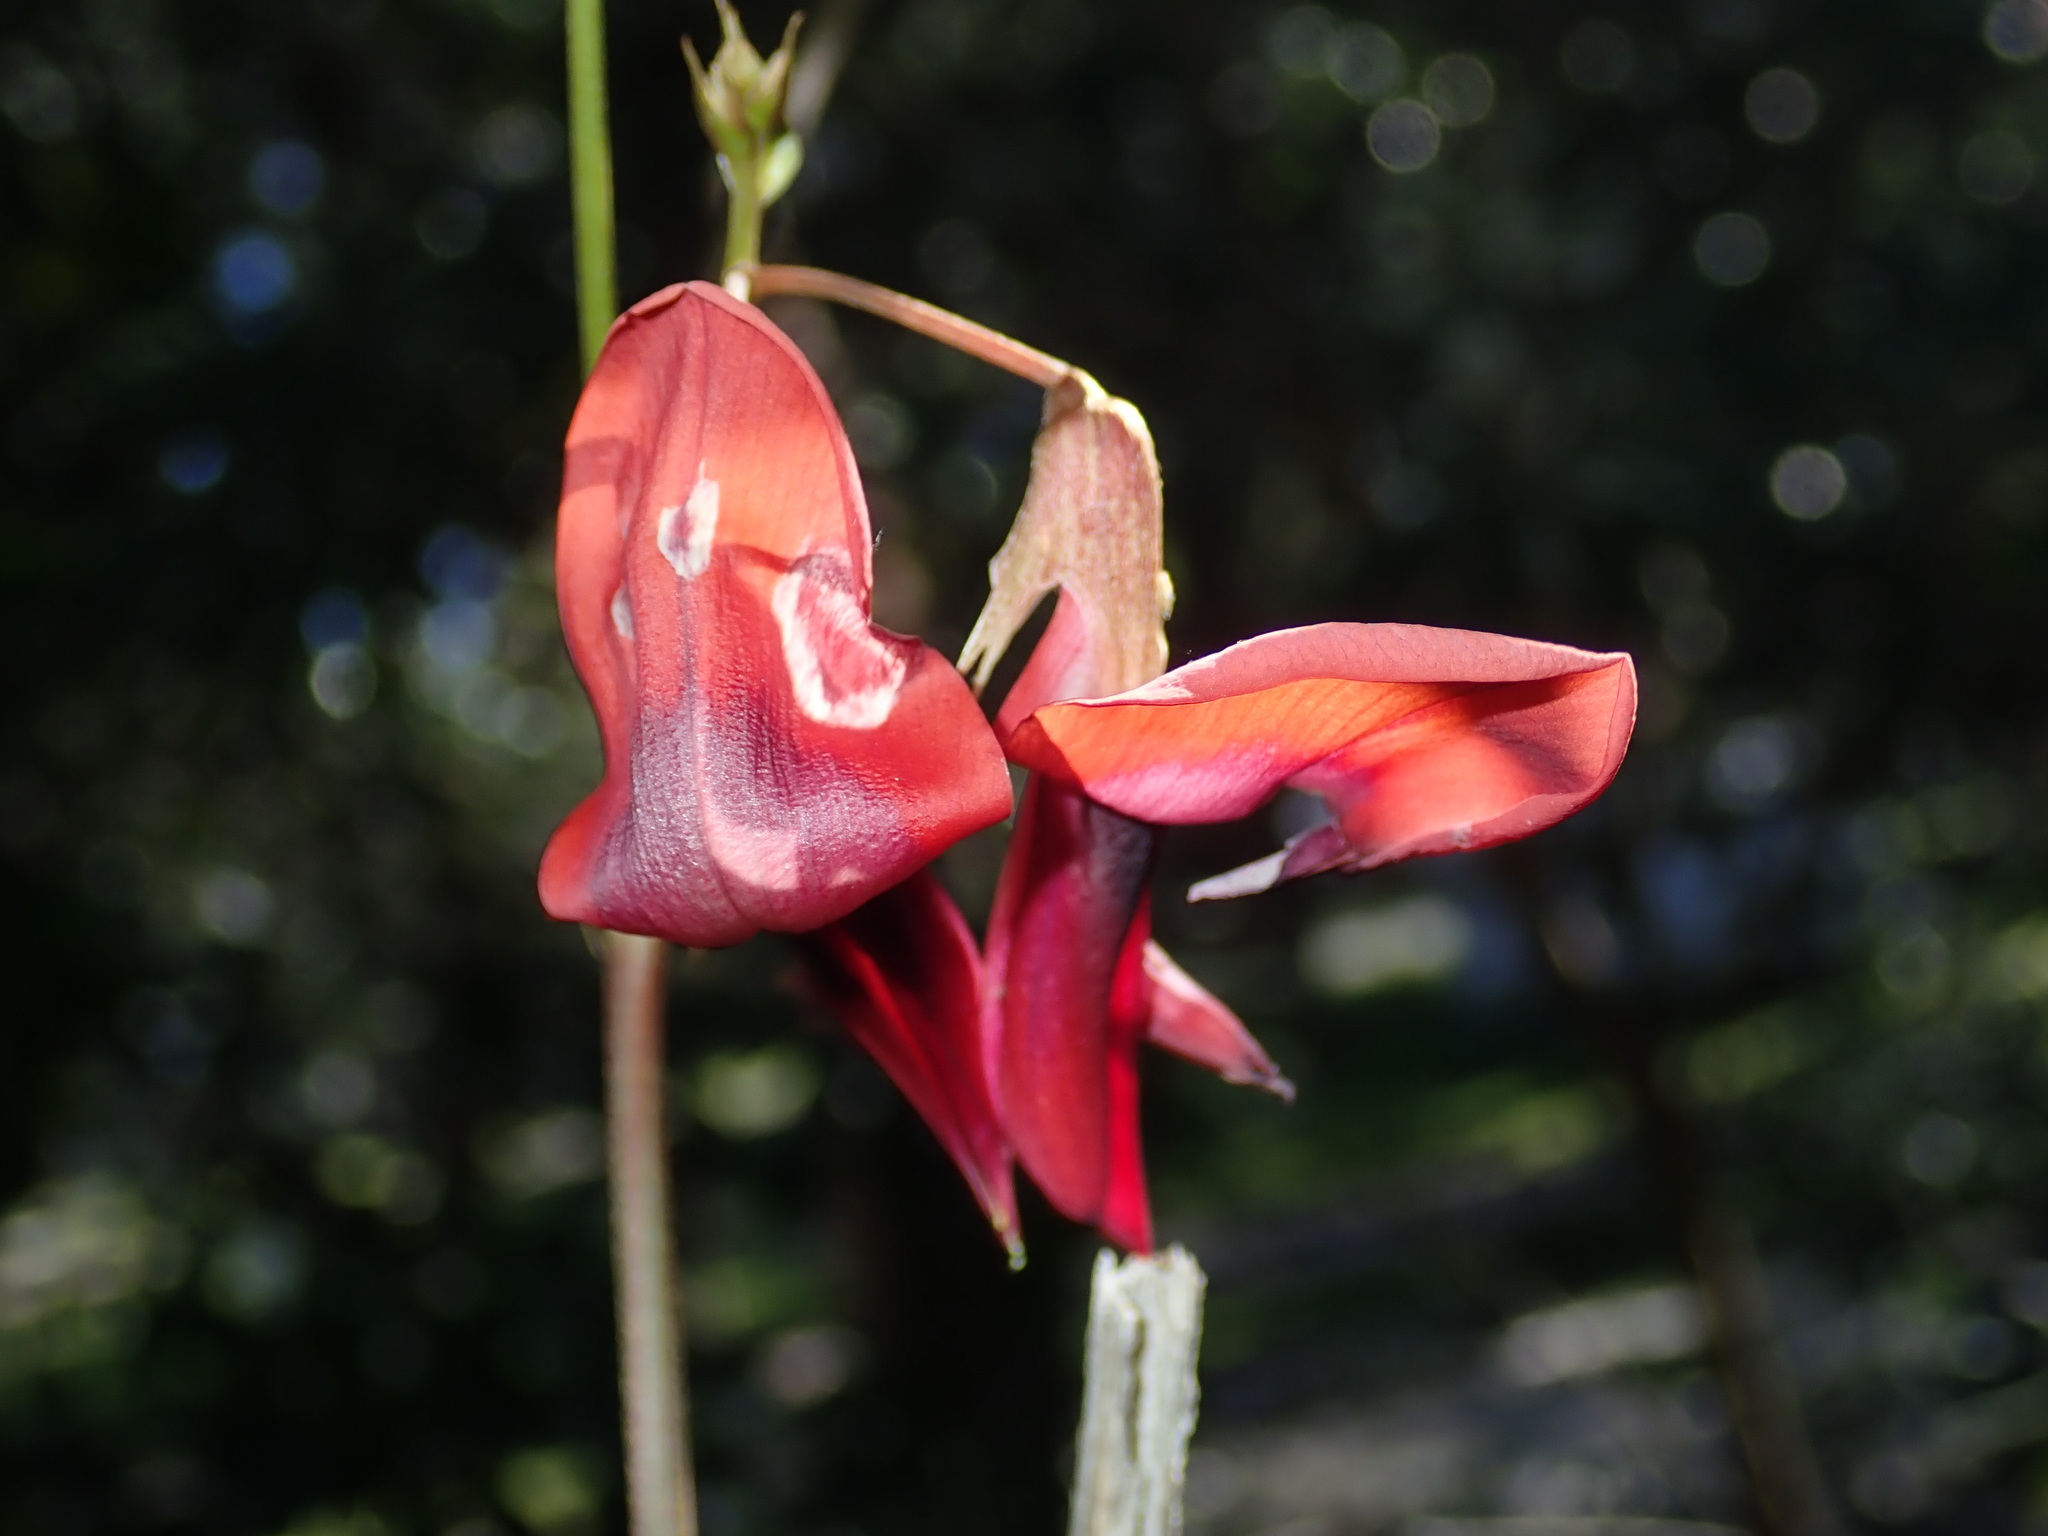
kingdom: Plantae
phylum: Tracheophyta
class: Magnoliopsida
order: Fabales
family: Fabaceae
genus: Kennedia
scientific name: Kennedia rubicunda
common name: Red kennedy-pea
